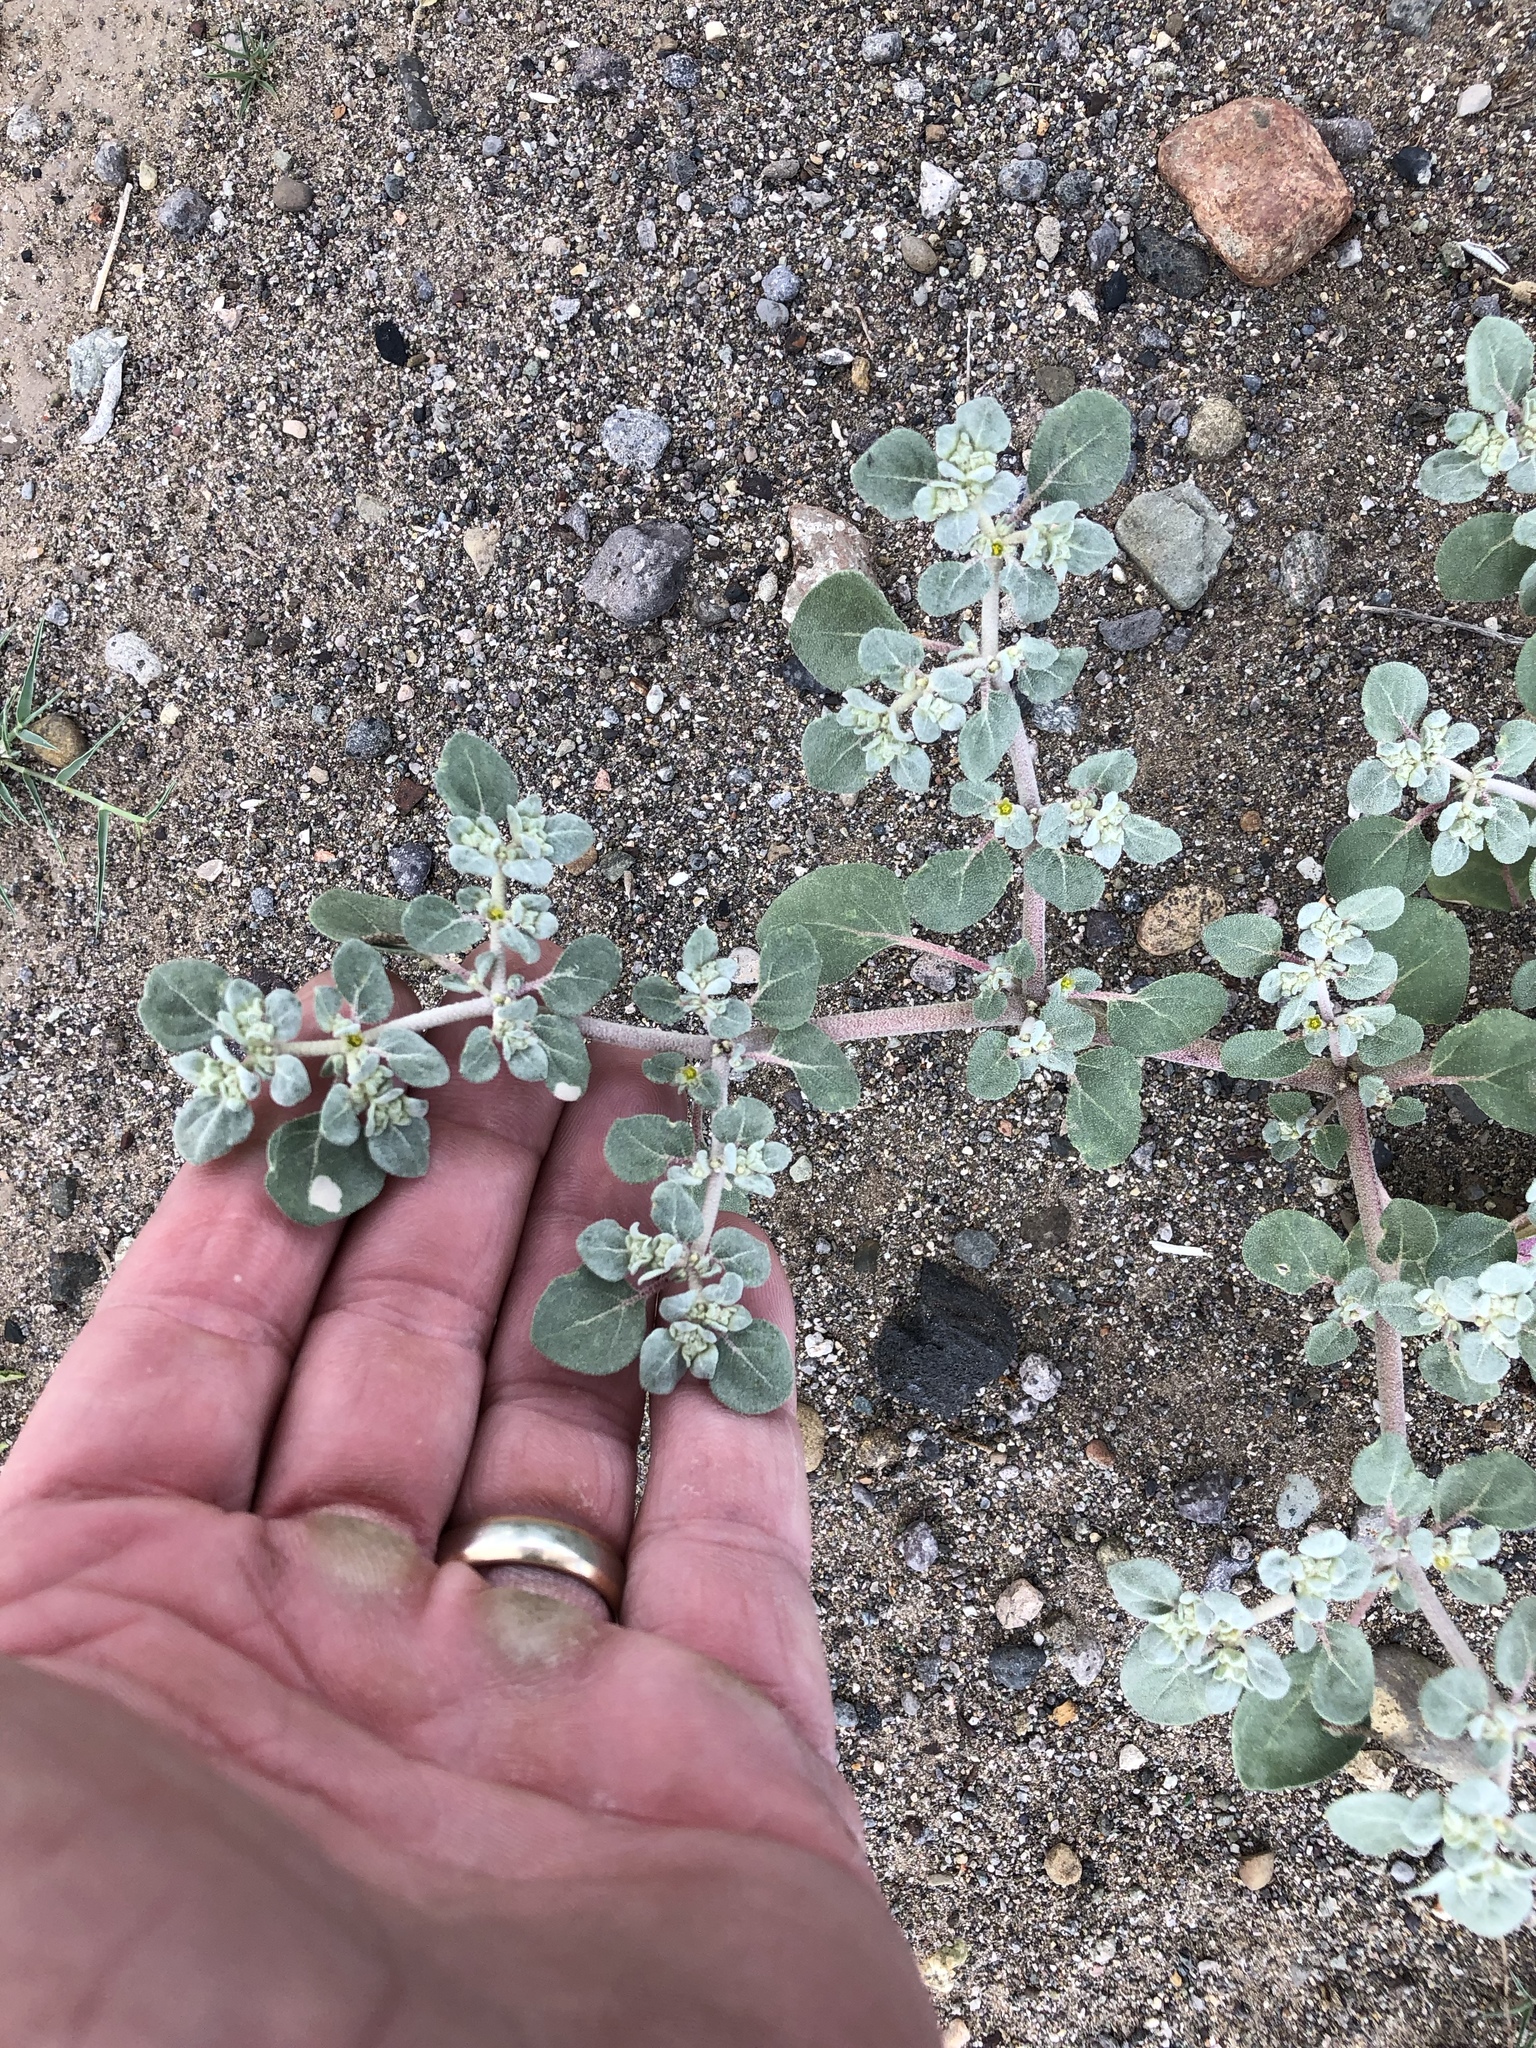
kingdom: Plantae
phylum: Tracheophyta
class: Magnoliopsida
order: Caryophyllales
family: Amaranthaceae
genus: Tidestromia
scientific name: Tidestromia lanuginosa
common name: Woolly tidestromia
